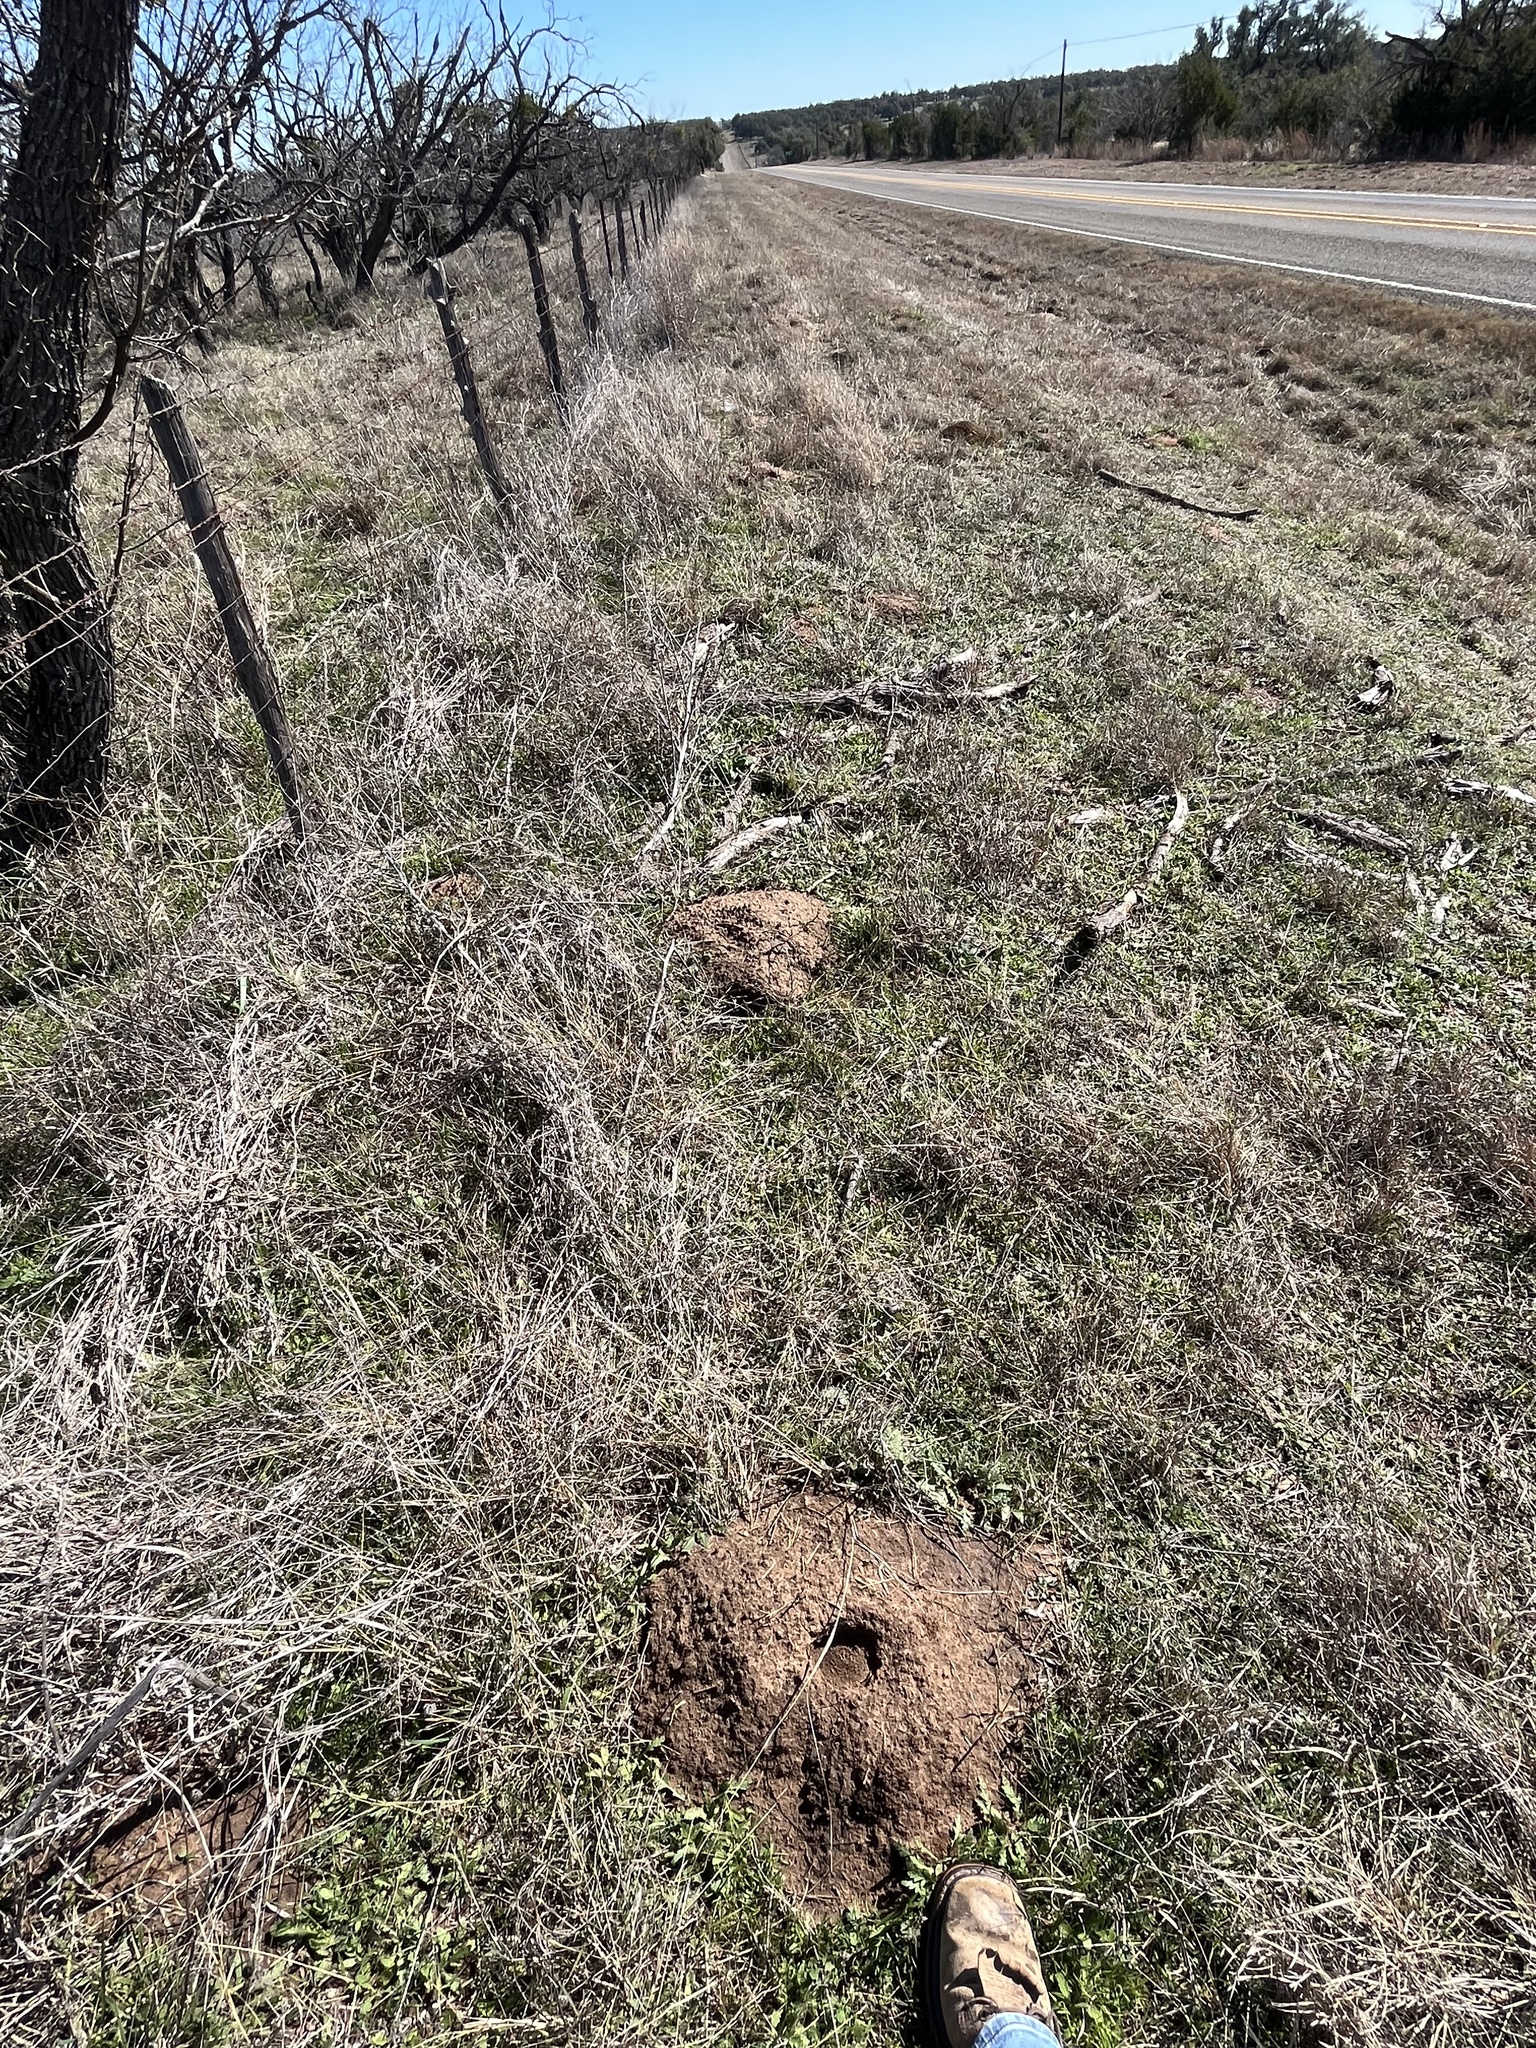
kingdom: Animalia
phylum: Chordata
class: Mammalia
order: Rodentia
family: Geomyidae
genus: Geomys
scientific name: Geomys texensis
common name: Llano pocket gopher
